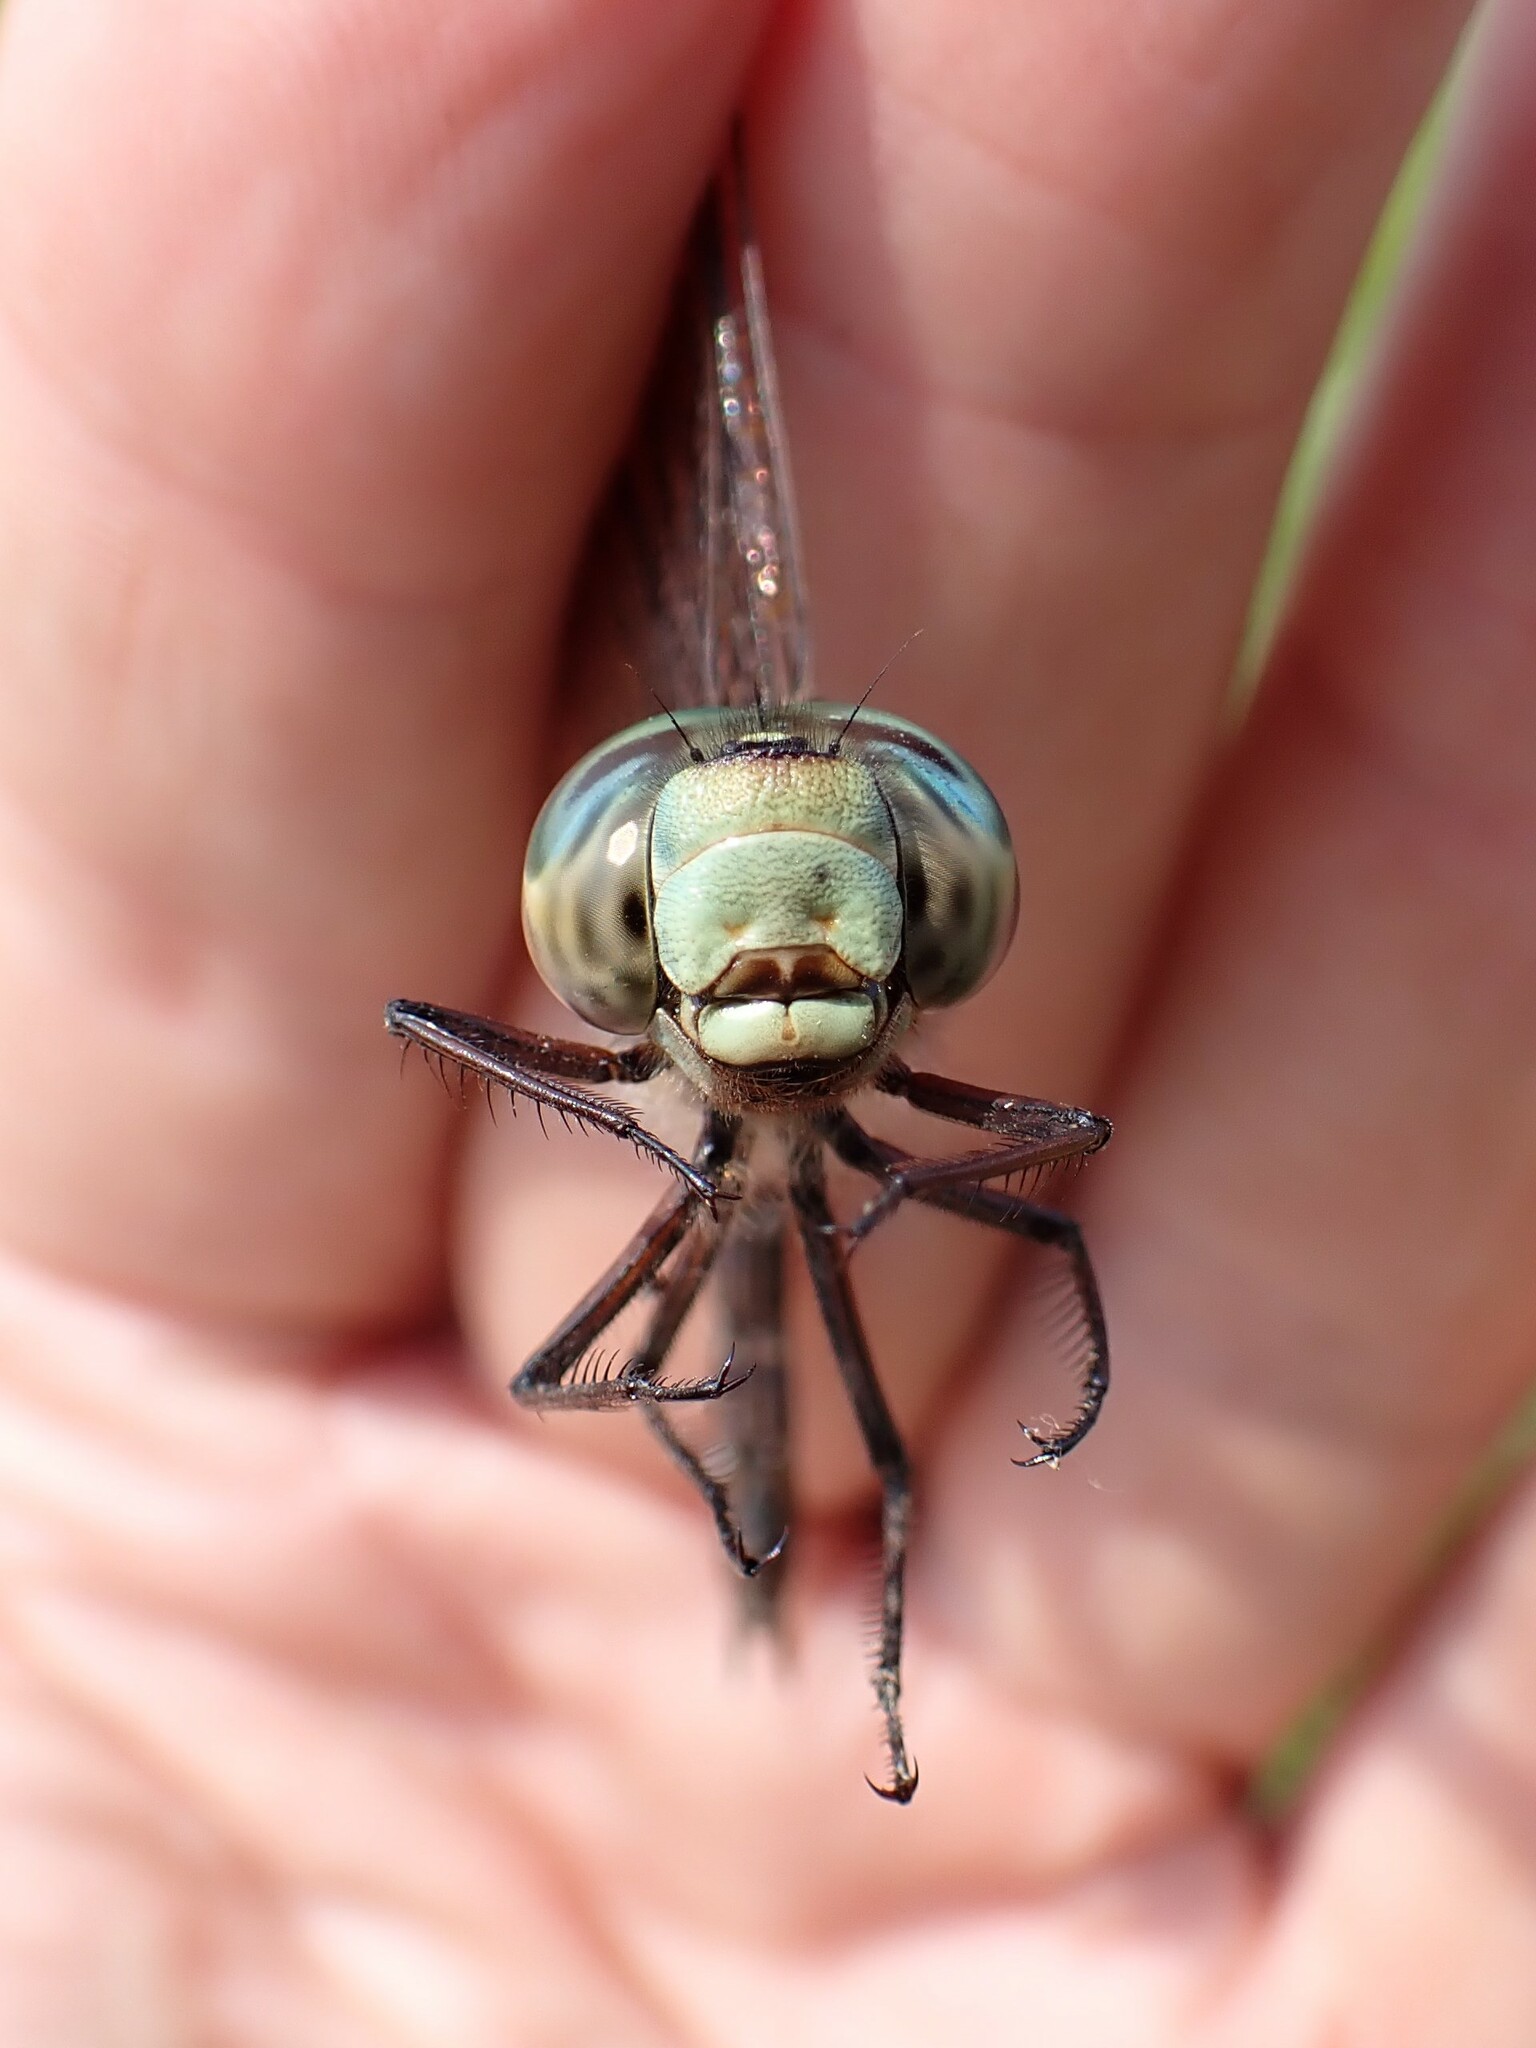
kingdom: Animalia
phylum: Arthropoda
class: Insecta
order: Odonata
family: Aeshnidae
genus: Aeshna
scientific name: Aeshna canadensis
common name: Canada darner
